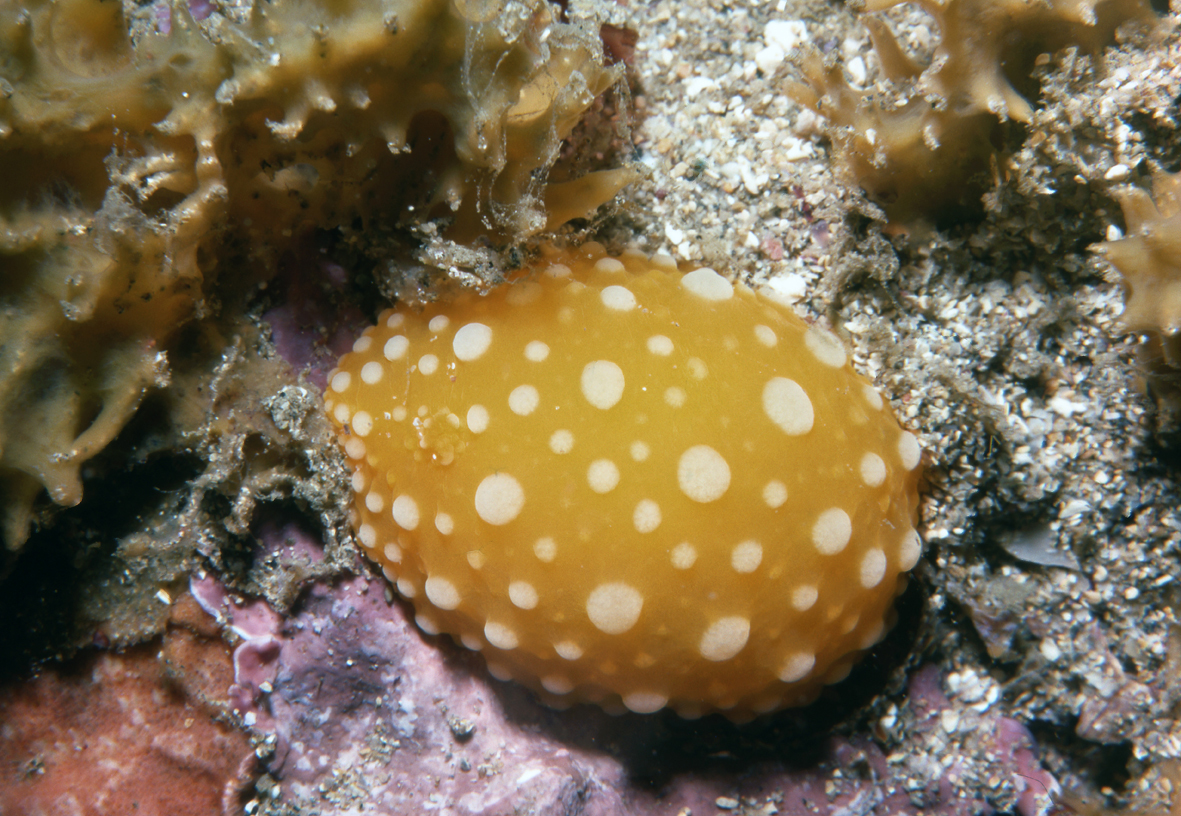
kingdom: Animalia
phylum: Mollusca
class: Gastropoda
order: Nudibranchia
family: Dorididae
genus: Doris
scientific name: Doris chrysoderma
